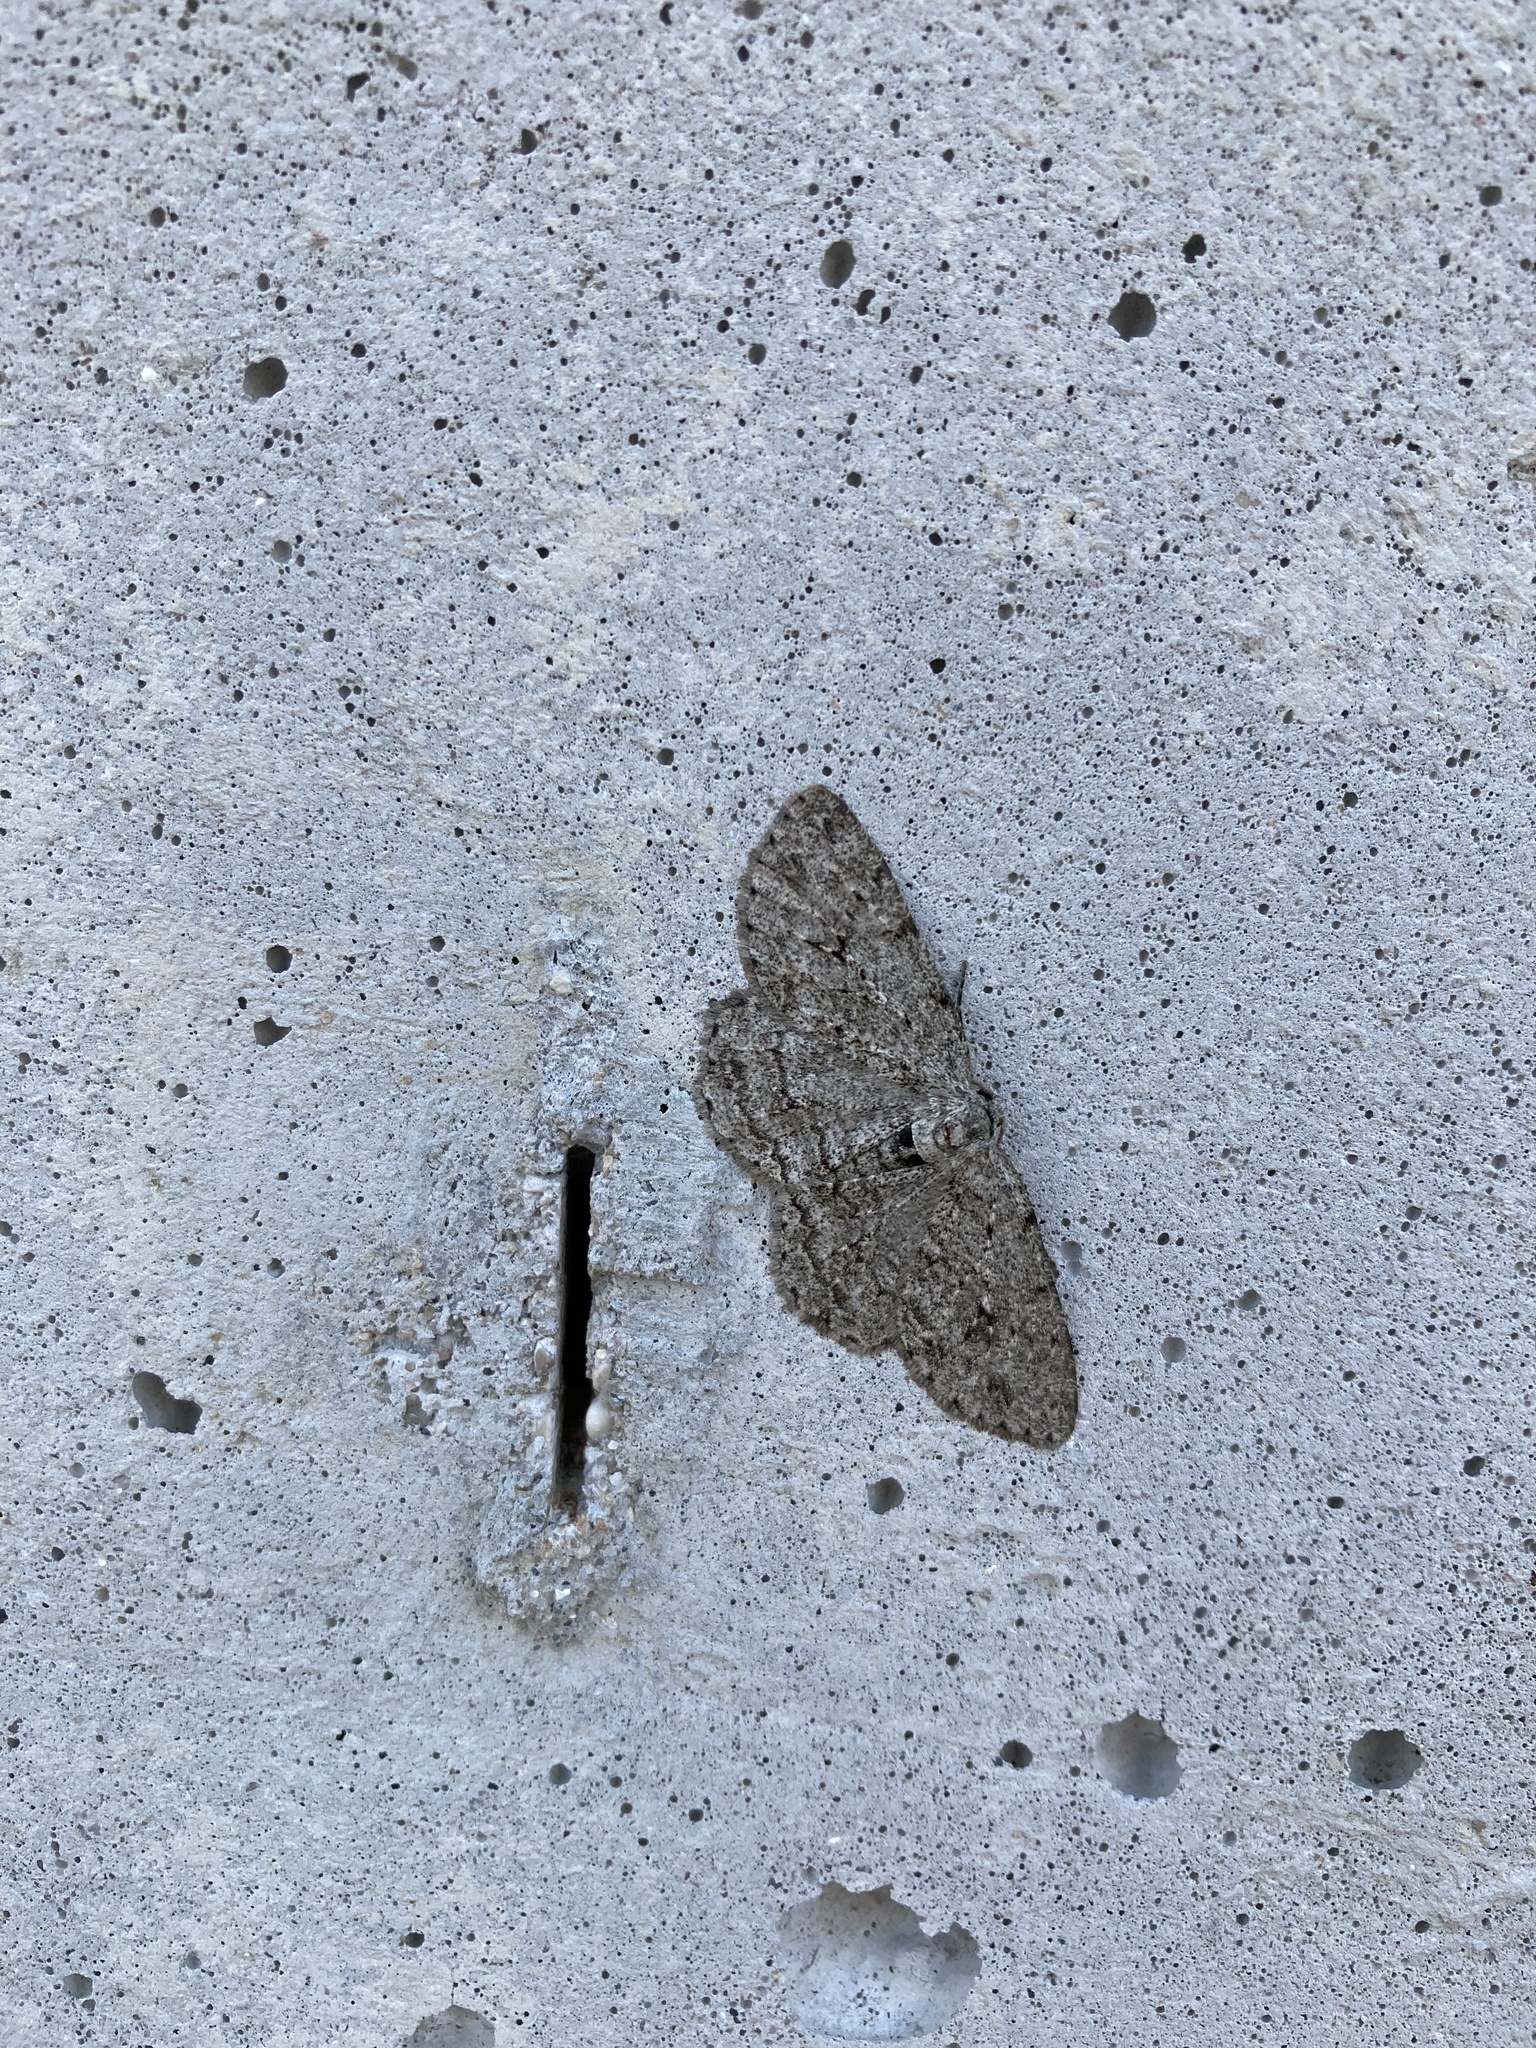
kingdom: Animalia
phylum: Arthropoda
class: Insecta
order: Lepidoptera
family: Geometridae
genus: Ectropis
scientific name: Ectropis crepuscularia
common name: Engrailed
